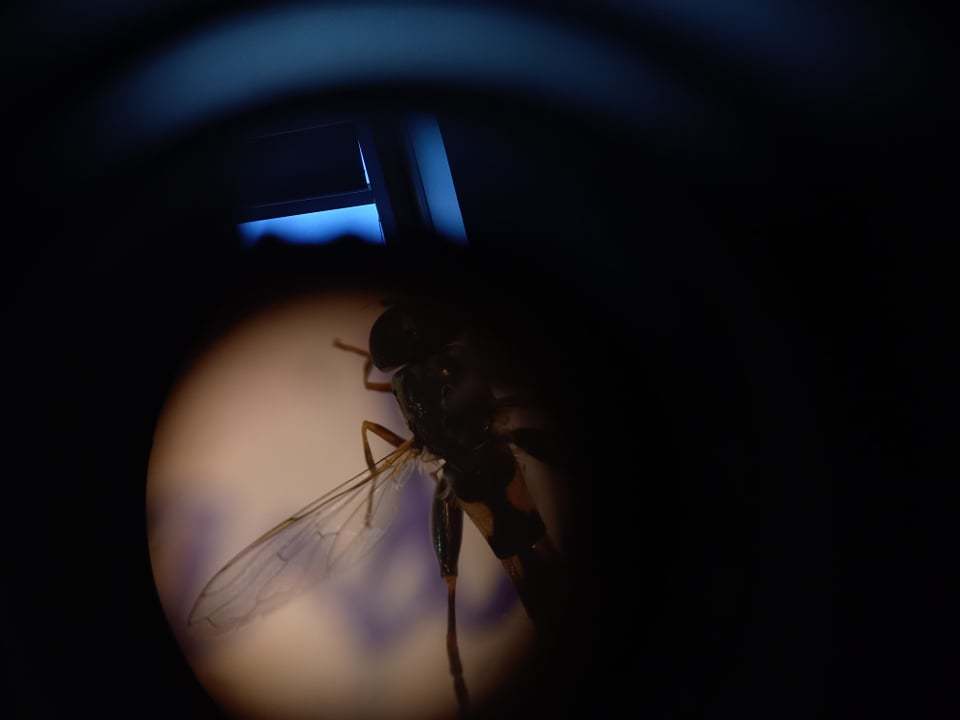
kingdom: Animalia
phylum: Arthropoda
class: Insecta
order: Diptera
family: Syrphidae
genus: Syritta
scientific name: Syritta pipiens
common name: Hover fly
